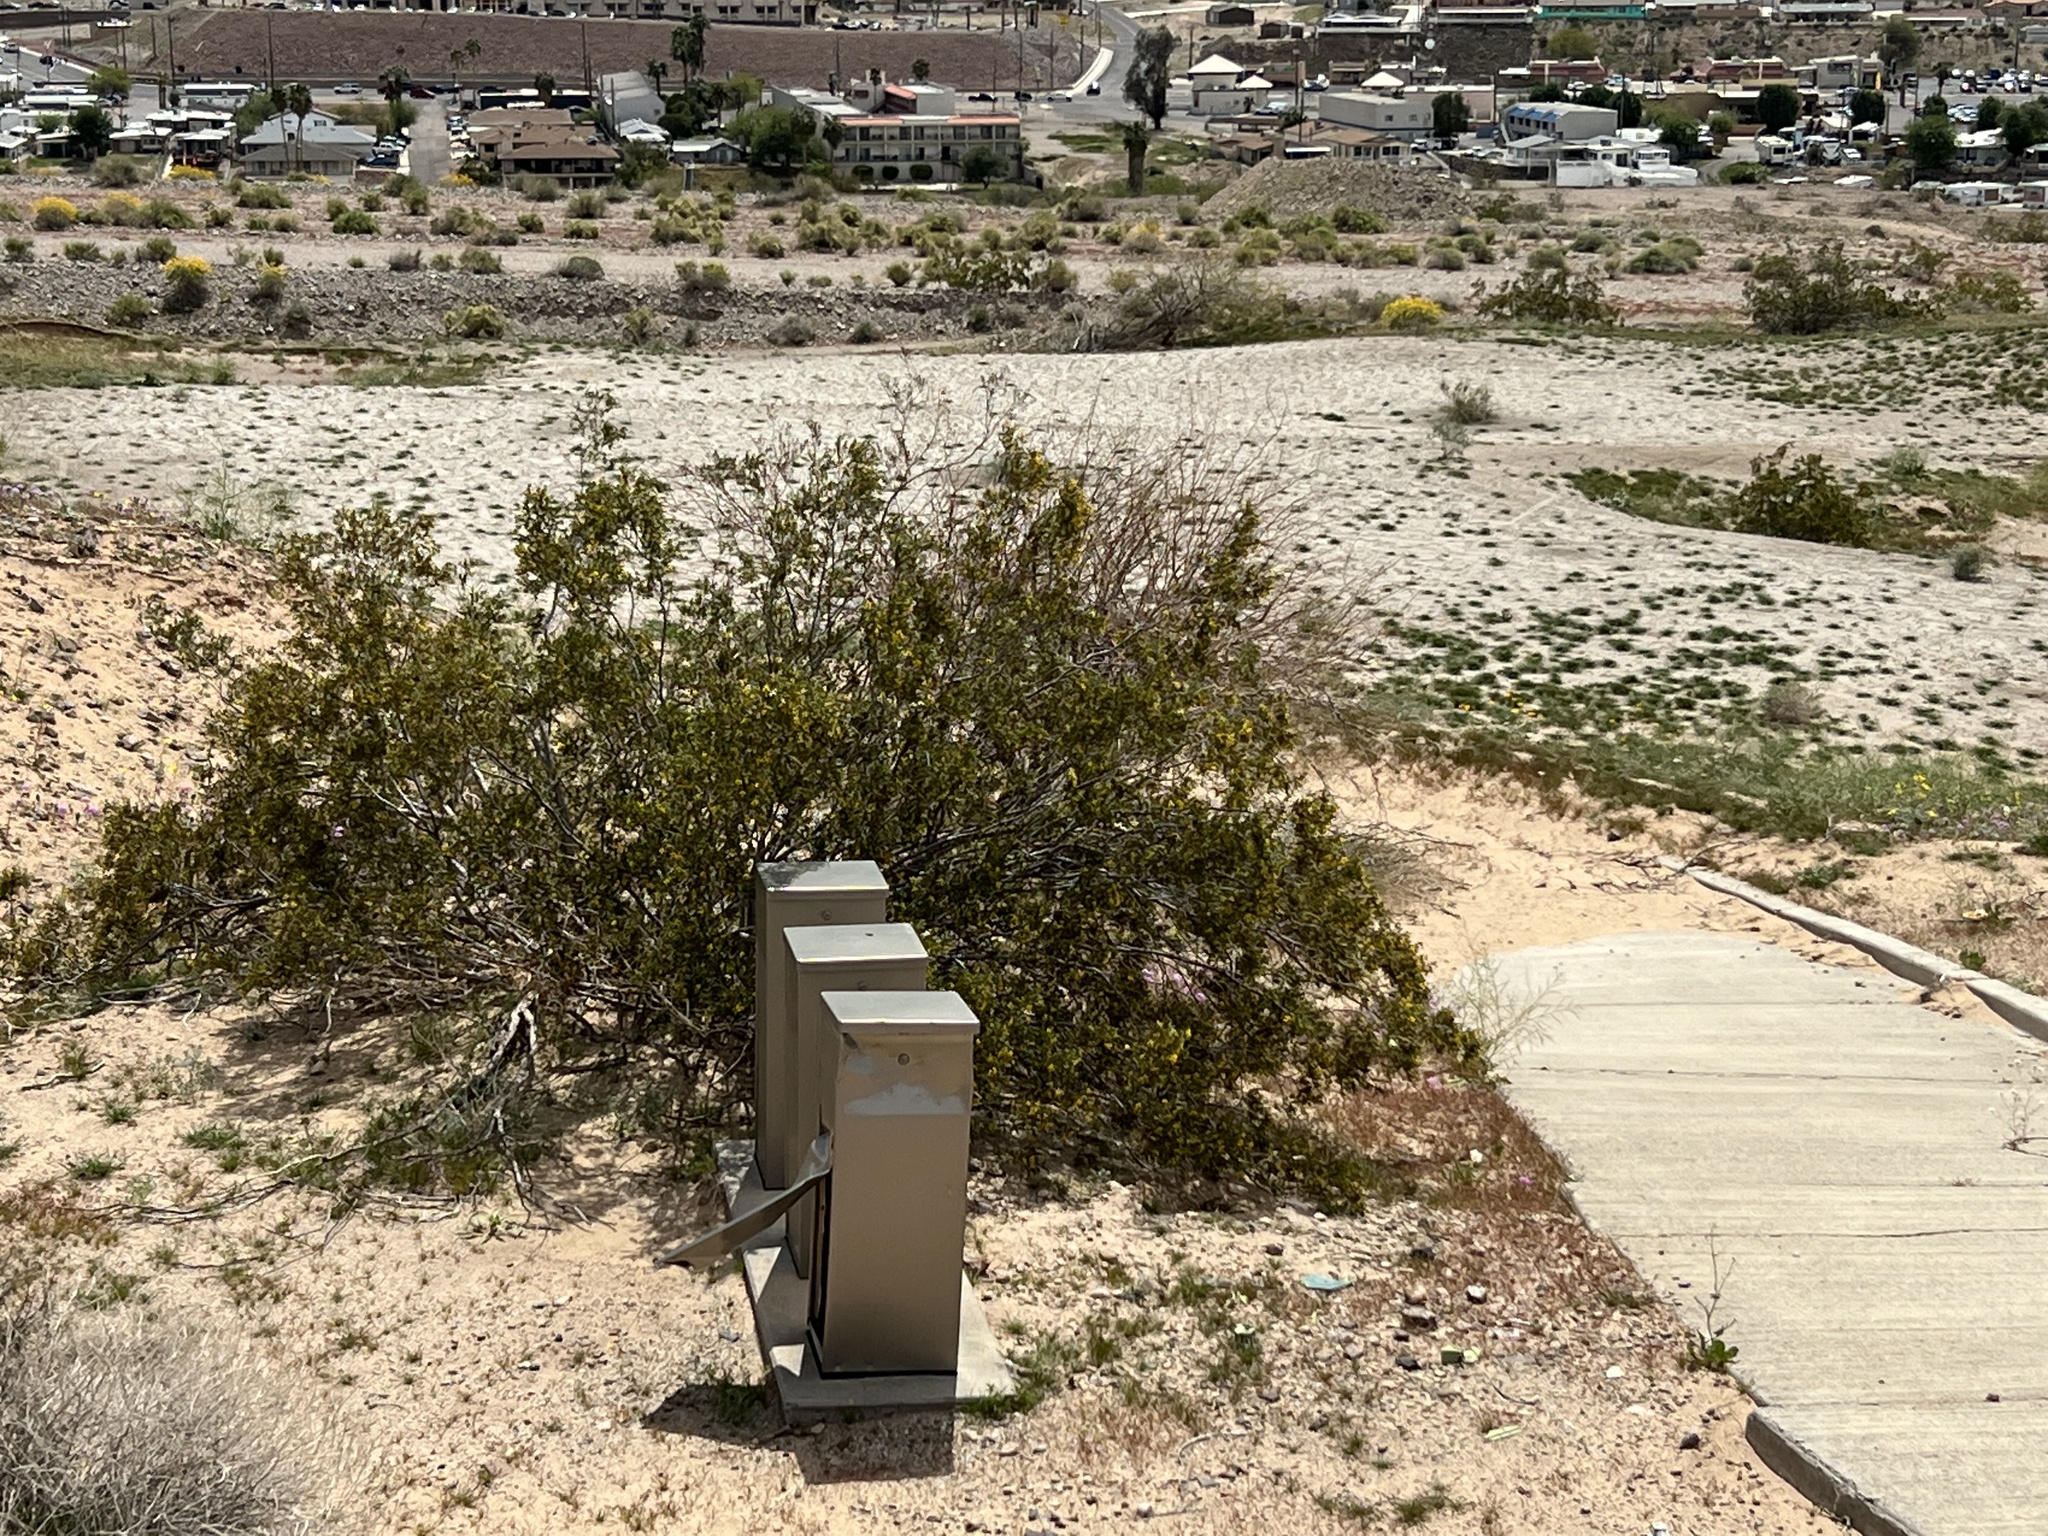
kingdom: Plantae
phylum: Tracheophyta
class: Magnoliopsida
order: Zygophyllales
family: Zygophyllaceae
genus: Larrea
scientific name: Larrea tridentata
